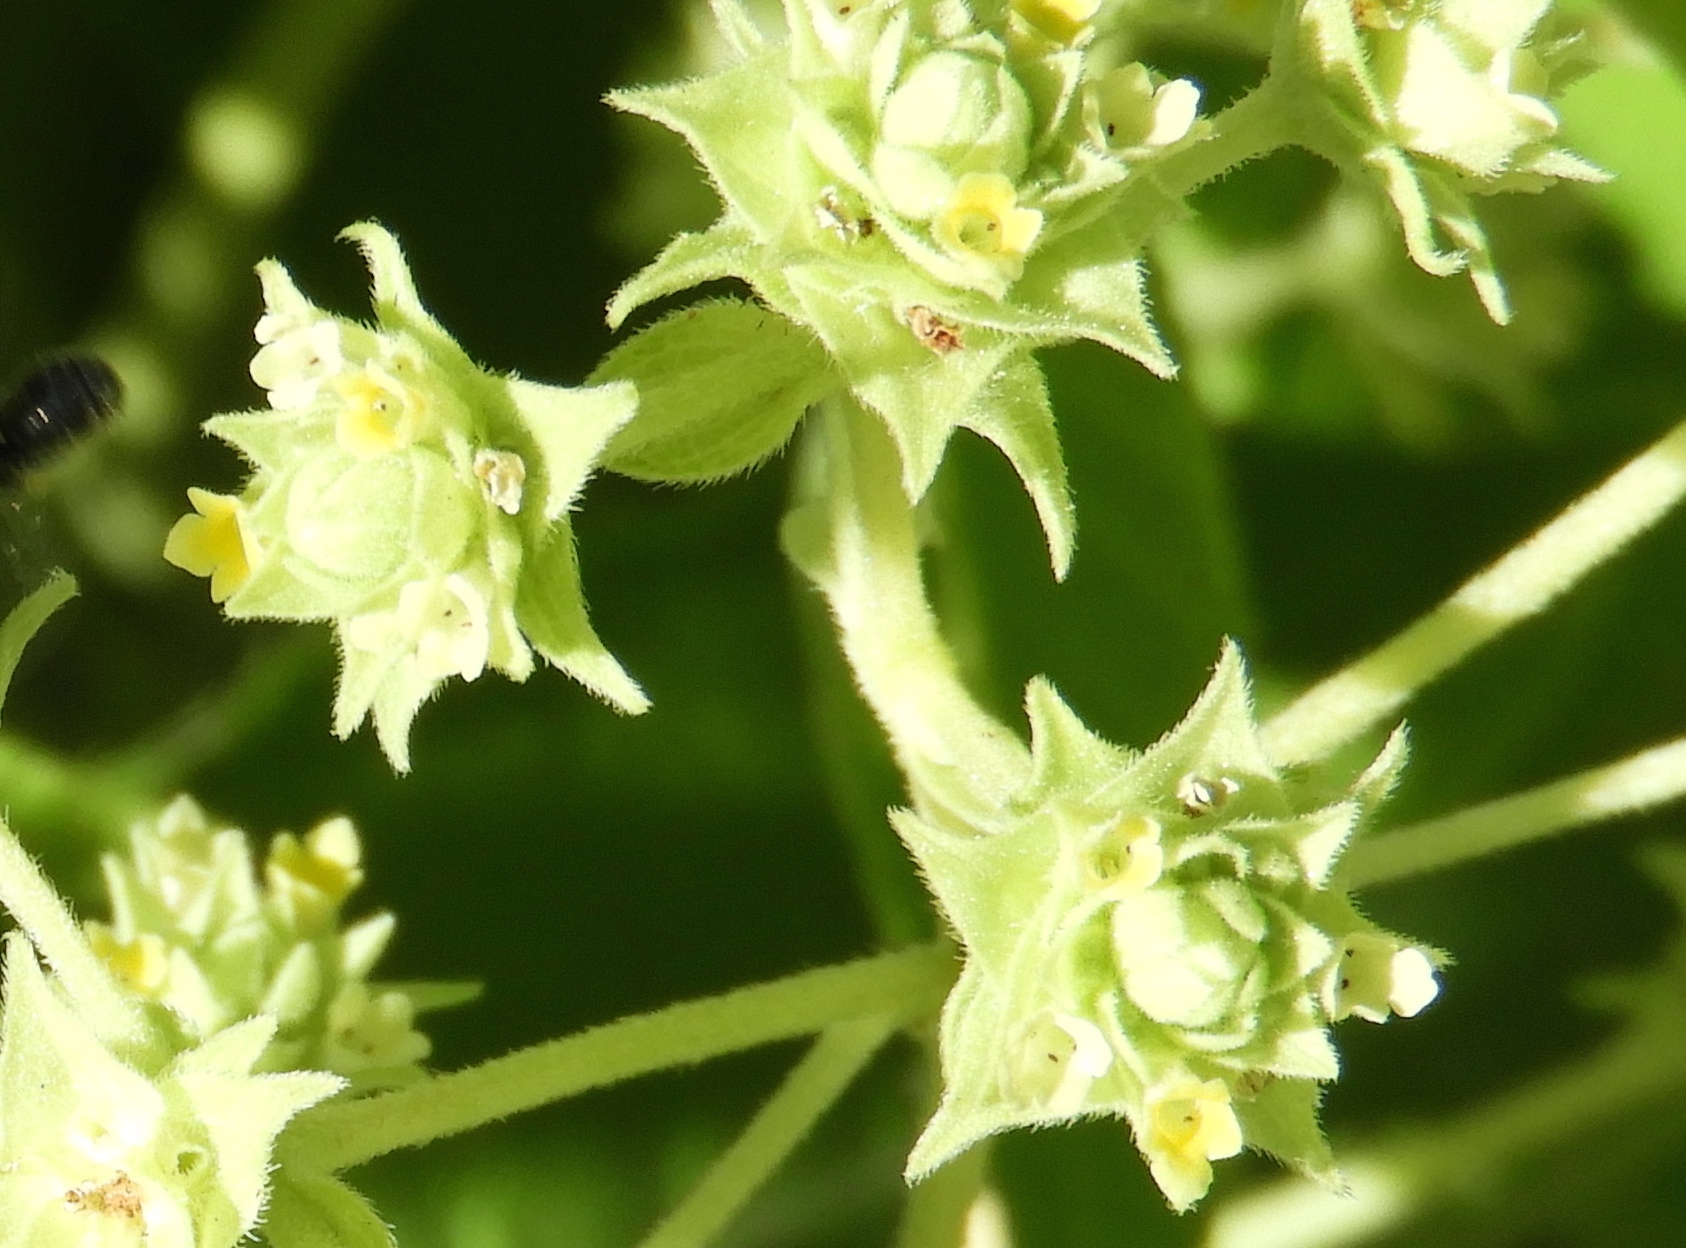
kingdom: Plantae
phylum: Tracheophyta
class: Magnoliopsida
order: Lamiales
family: Verbenaceae
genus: Lippia
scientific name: Lippia umbellata
